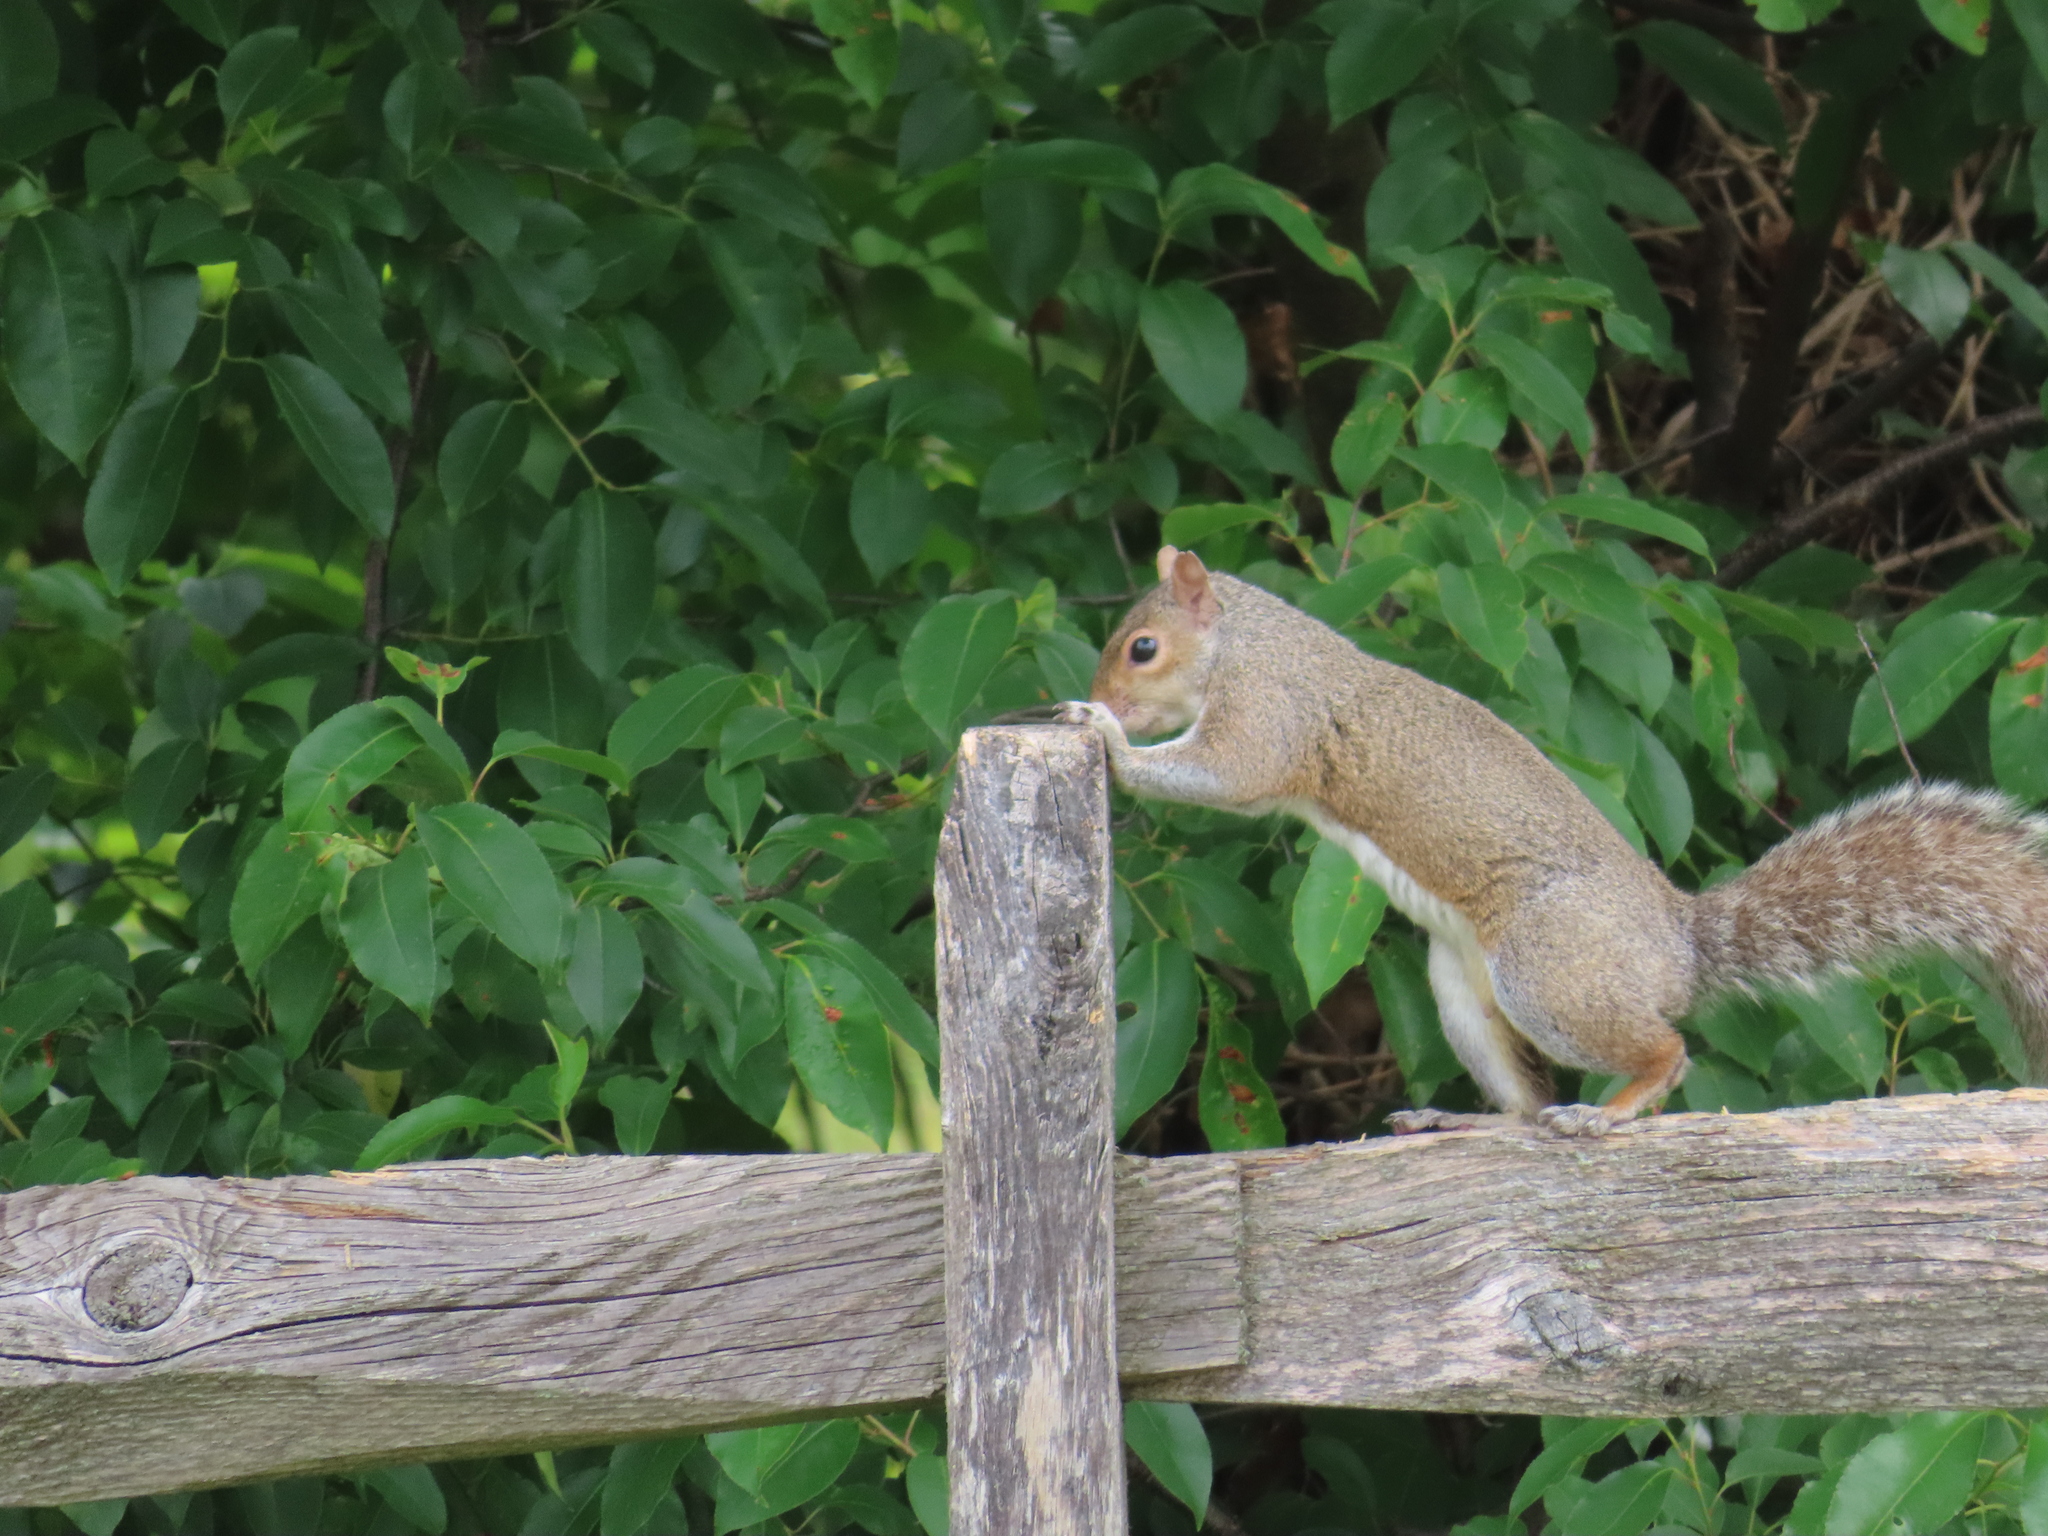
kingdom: Animalia
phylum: Chordata
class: Mammalia
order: Rodentia
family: Sciuridae
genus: Sciurus
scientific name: Sciurus carolinensis
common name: Eastern gray squirrel
